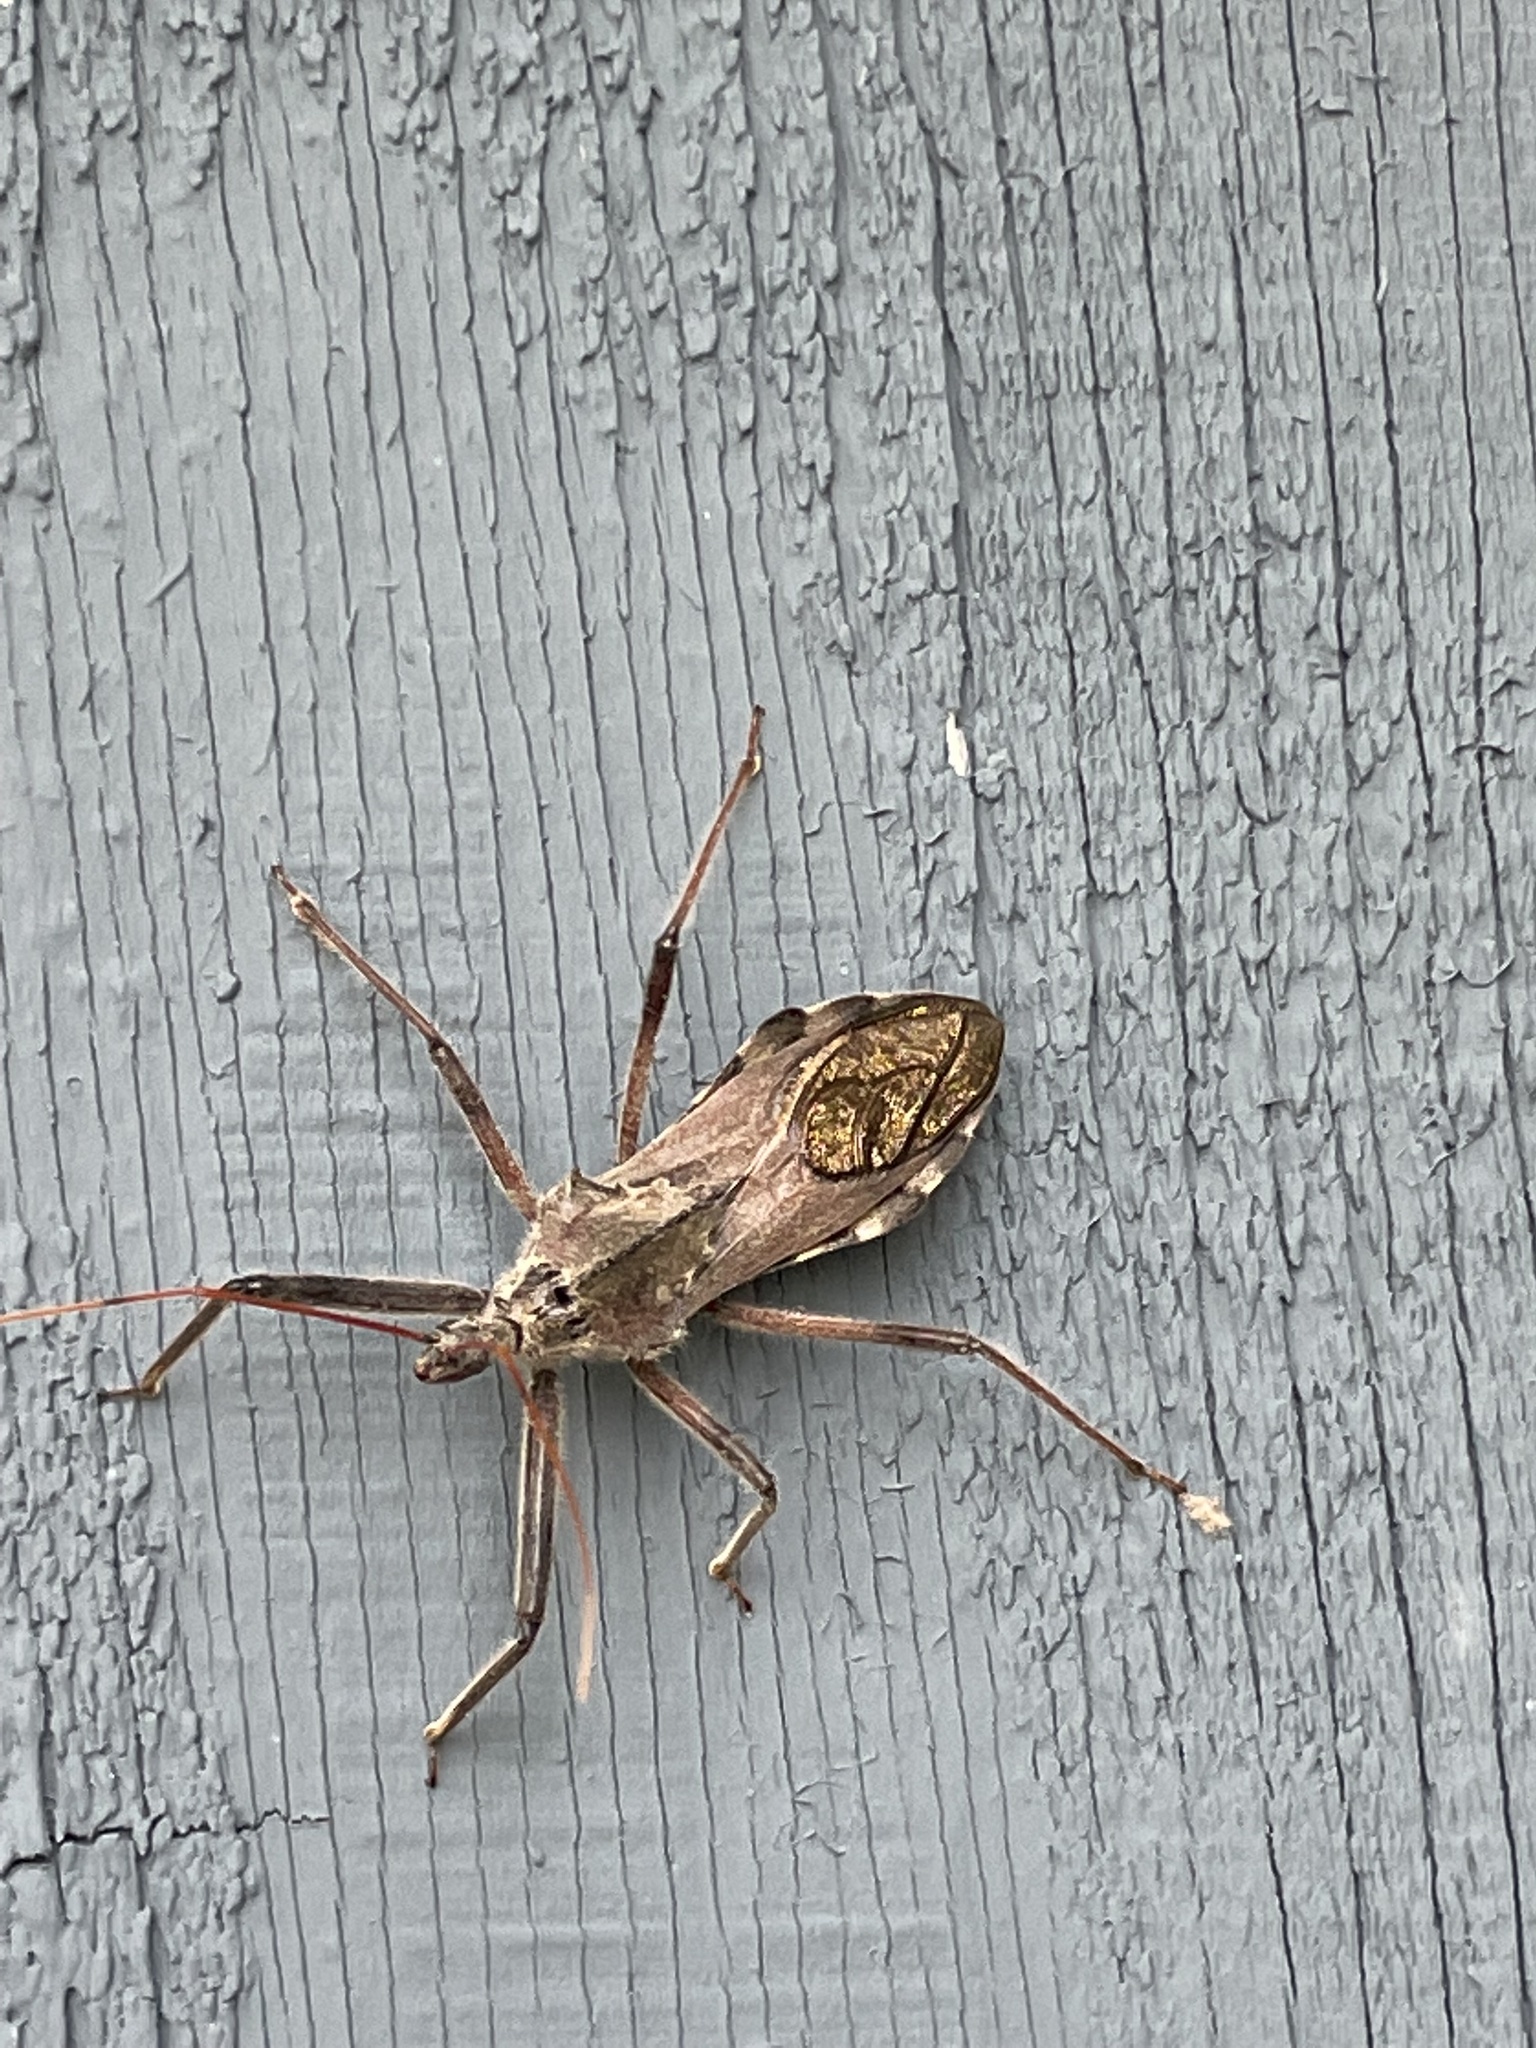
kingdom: Animalia
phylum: Arthropoda
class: Insecta
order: Hemiptera
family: Reduviidae
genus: Arilus
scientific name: Arilus cristatus
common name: North american wheel bug
